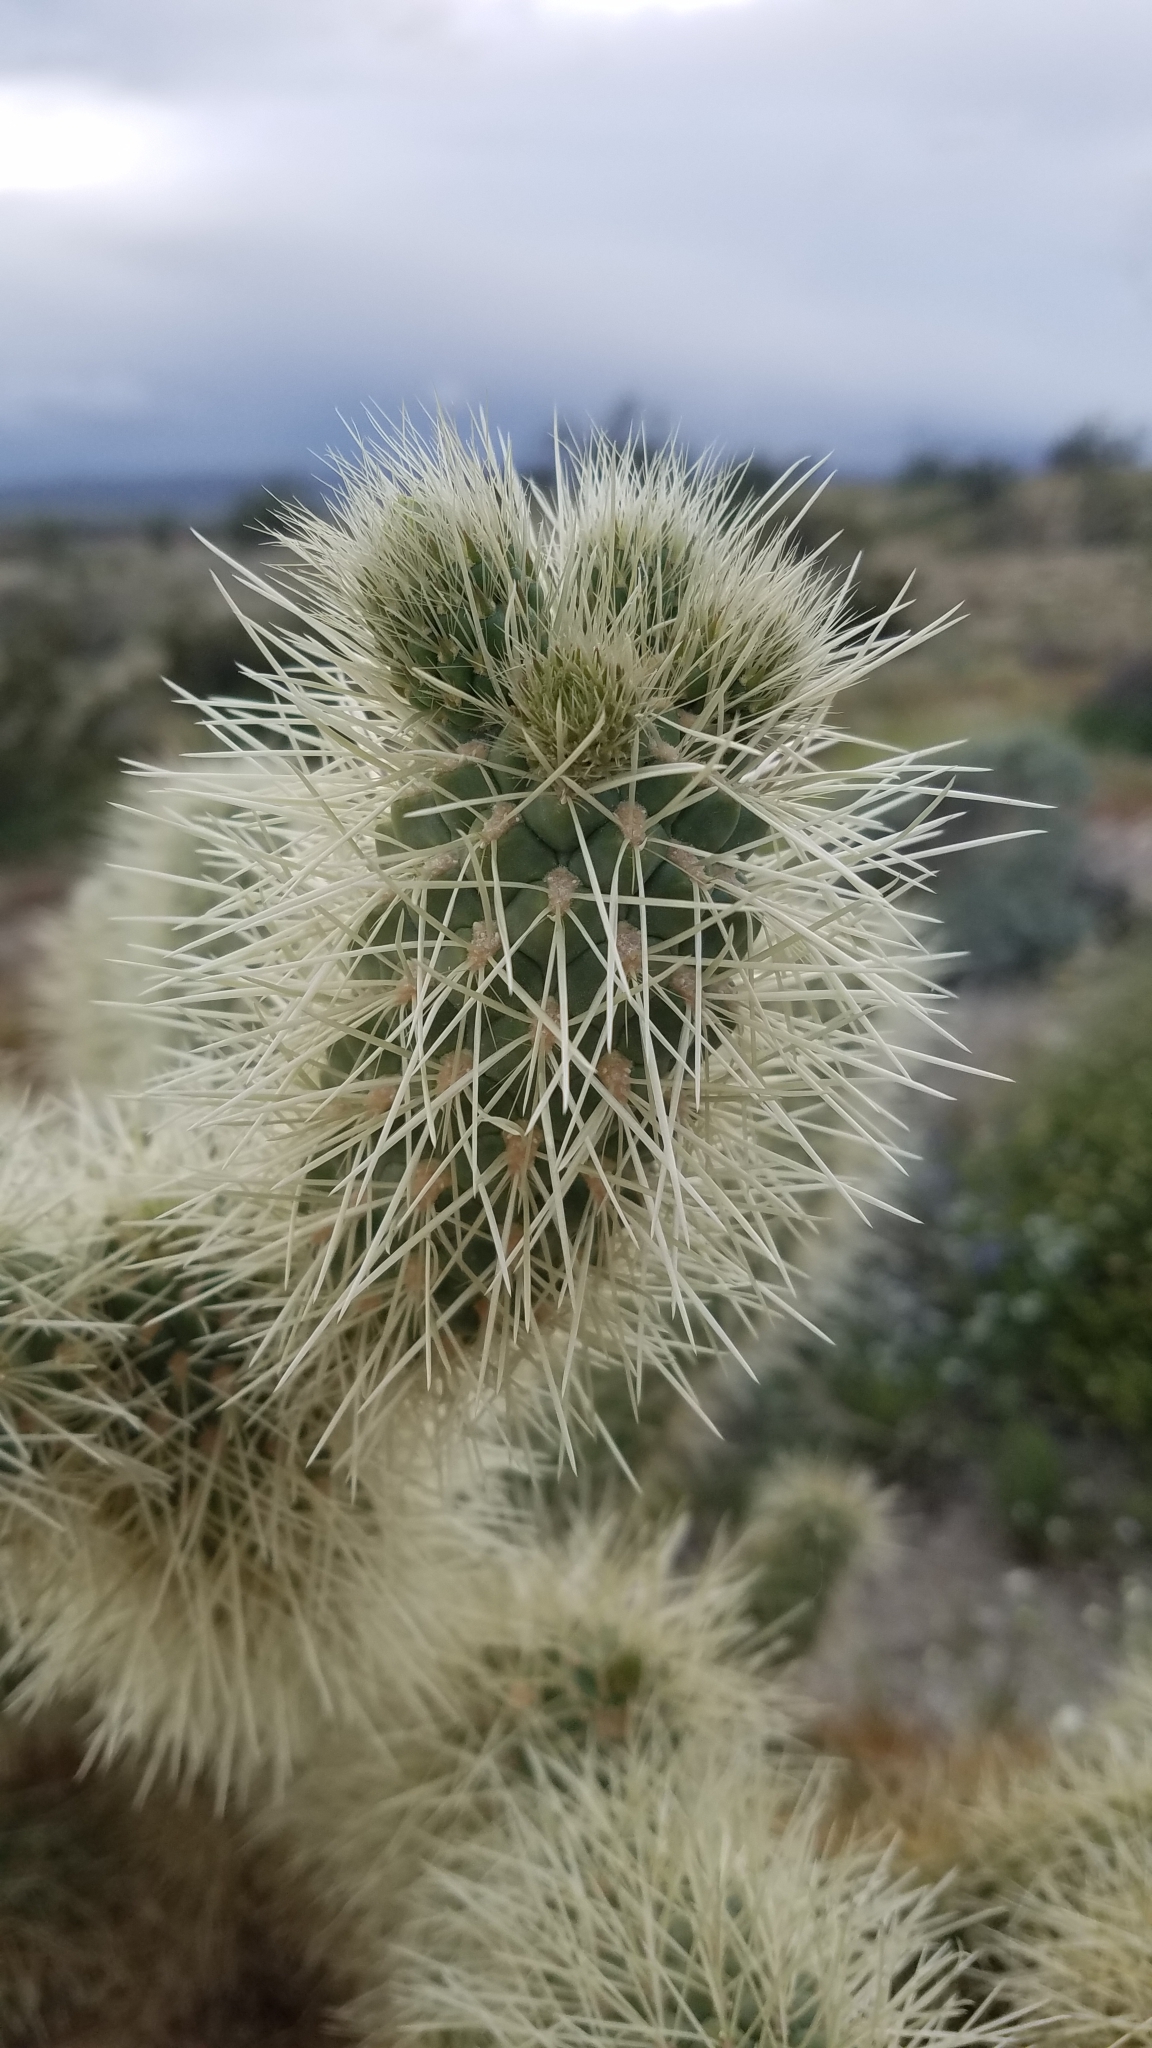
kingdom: Plantae
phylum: Tracheophyta
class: Magnoliopsida
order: Caryophyllales
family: Cactaceae
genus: Cylindropuntia
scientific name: Cylindropuntia fosbergii
